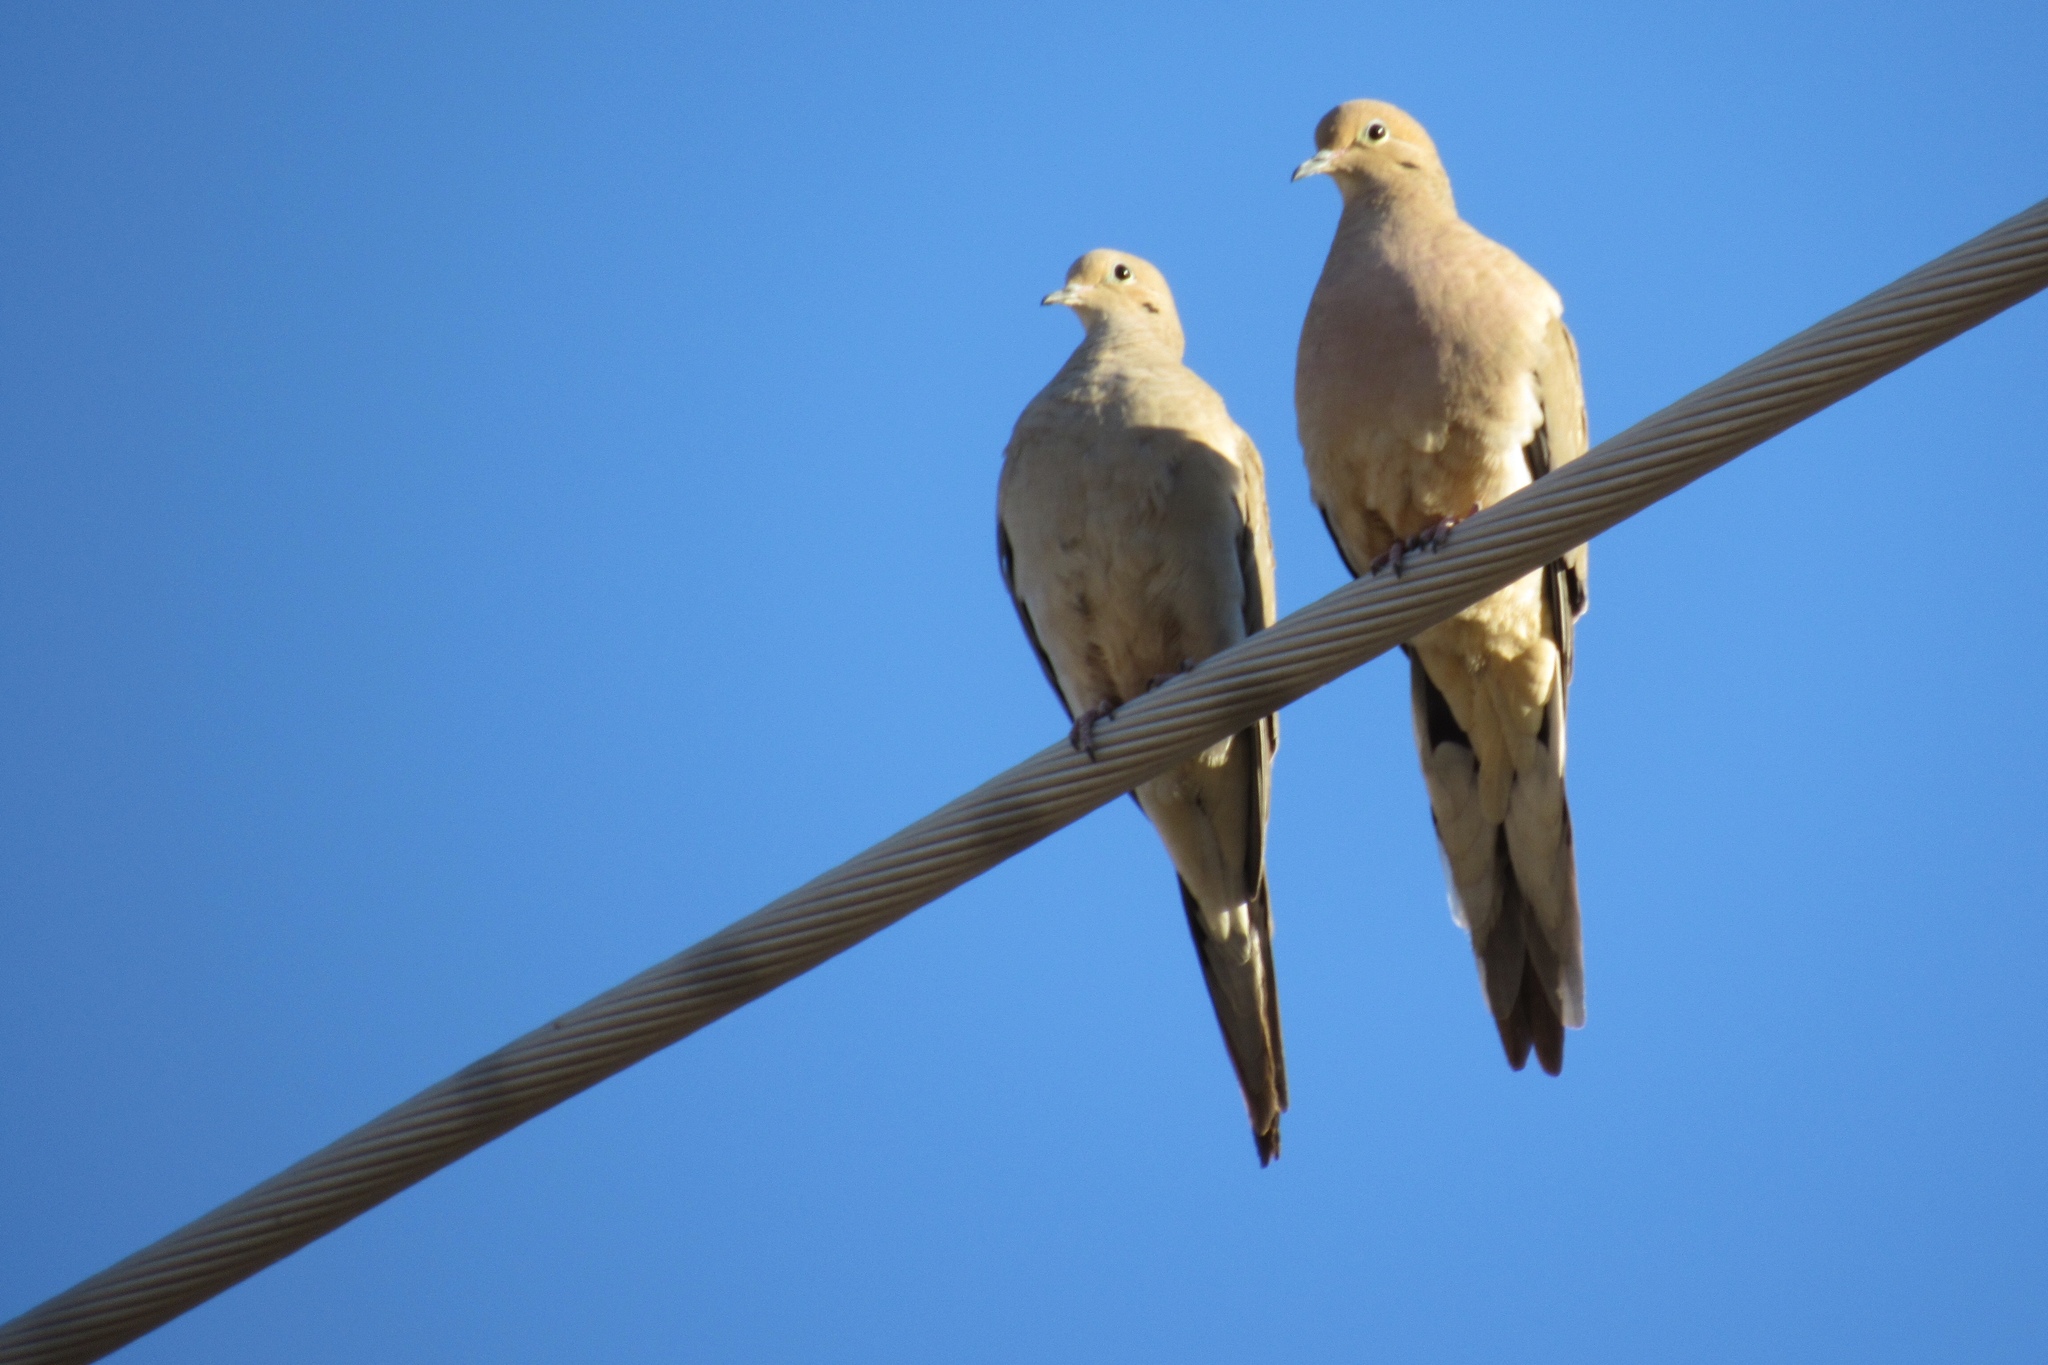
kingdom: Animalia
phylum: Chordata
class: Aves
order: Columbiformes
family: Columbidae
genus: Zenaida
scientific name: Zenaida macroura
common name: Mourning dove
